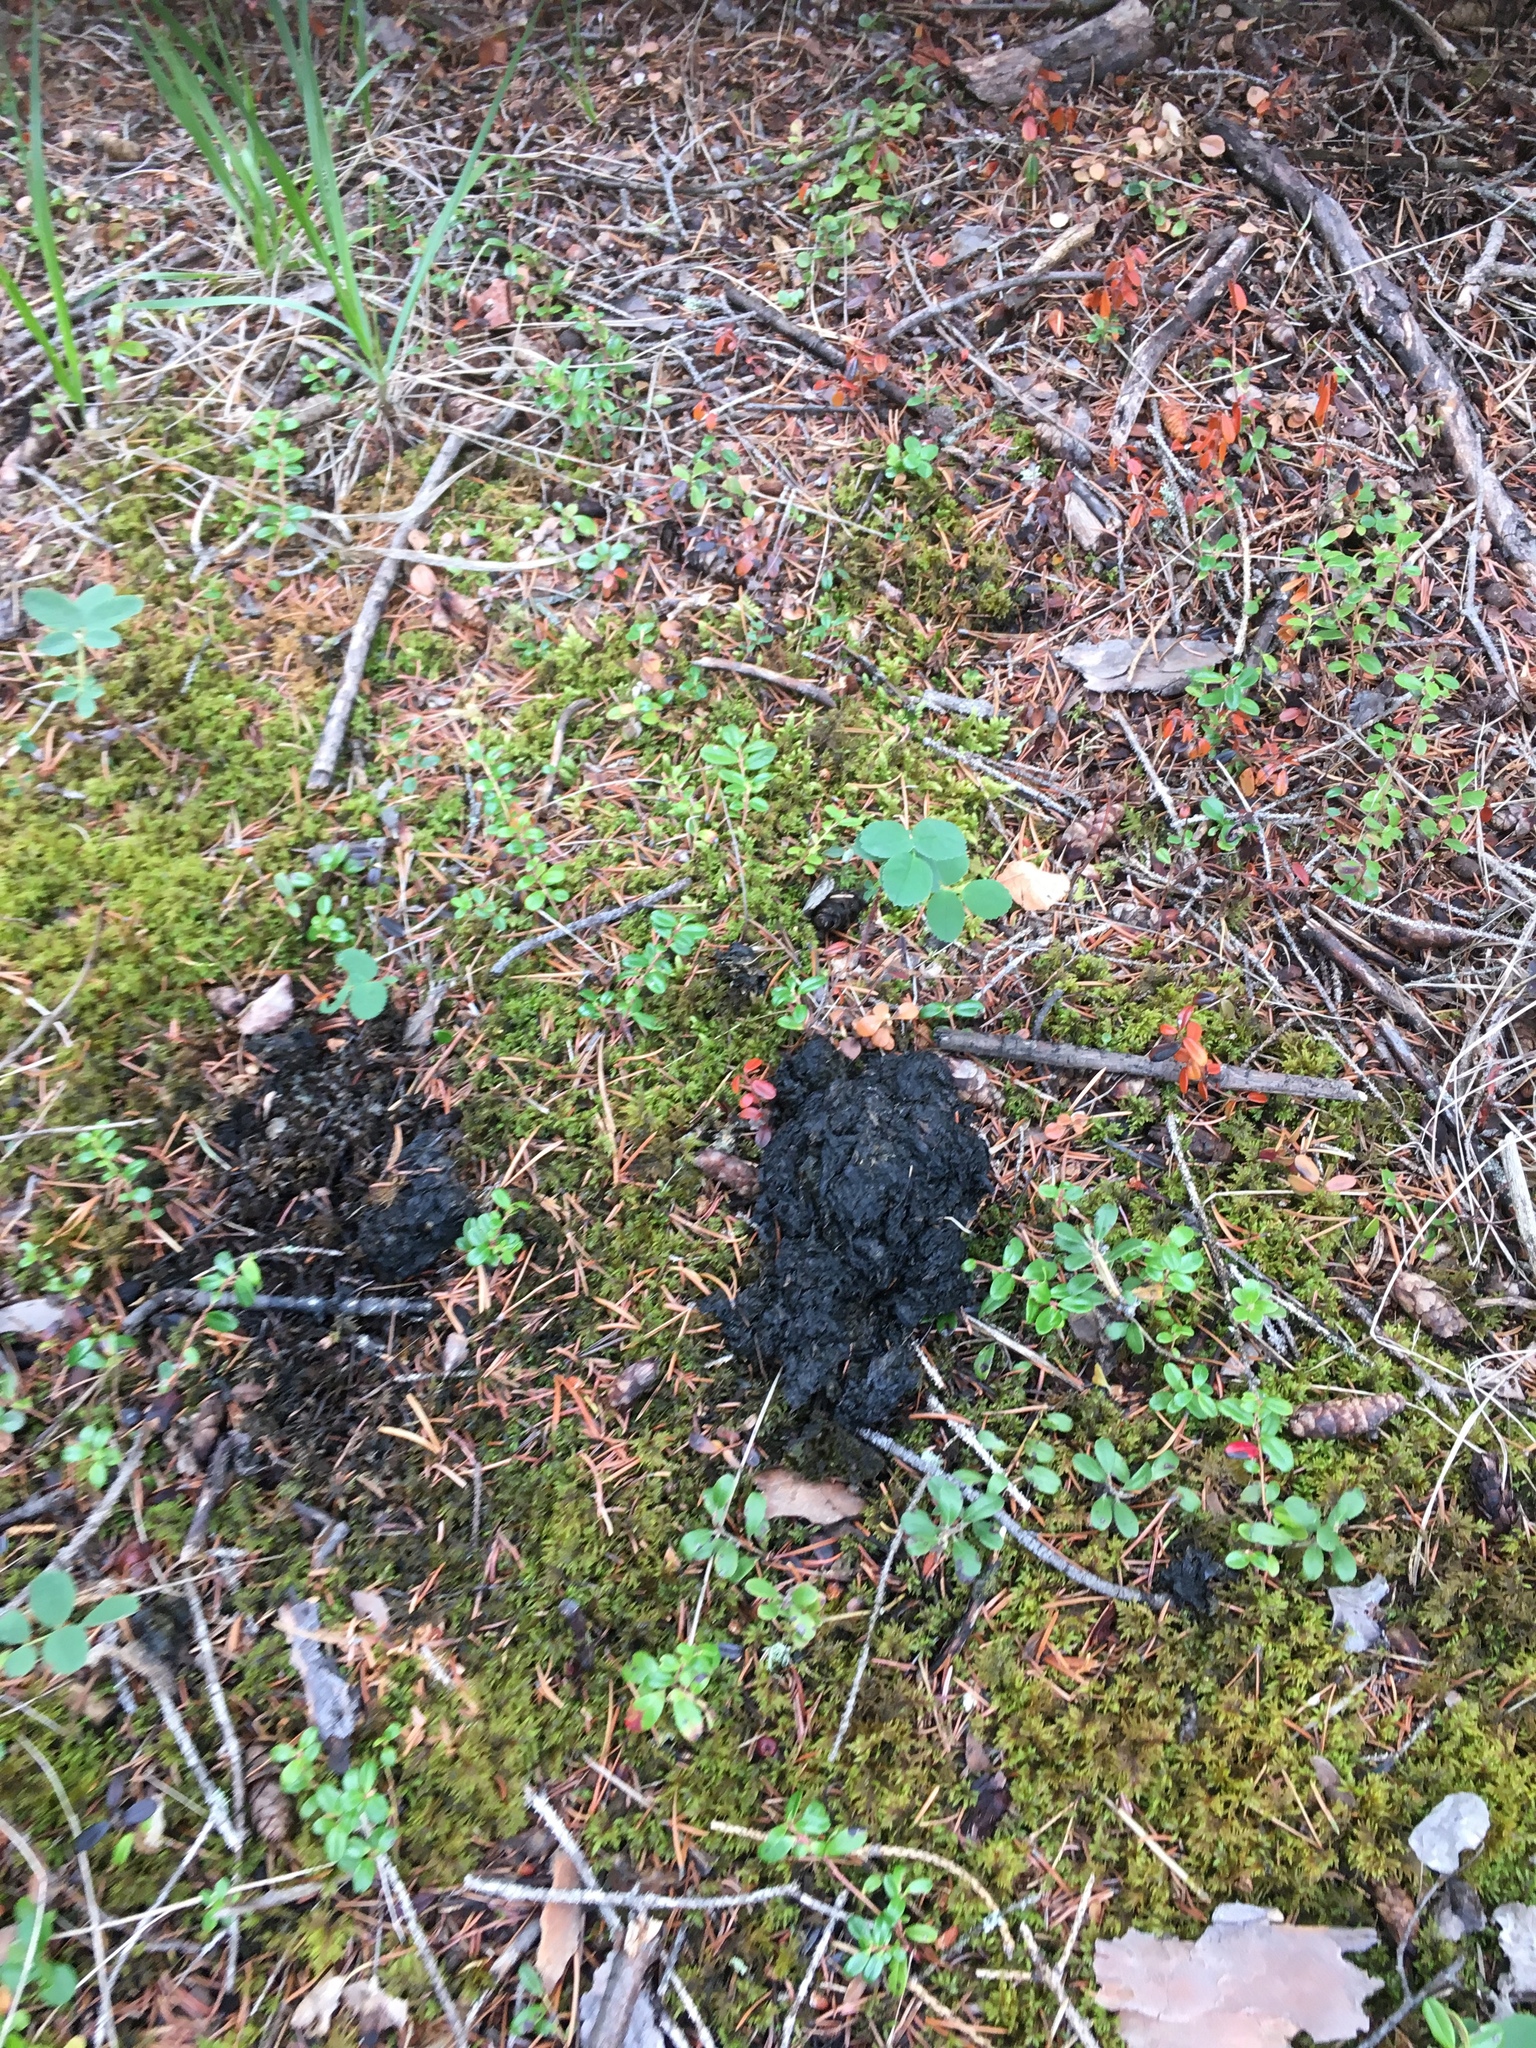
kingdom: Animalia
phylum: Chordata
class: Mammalia
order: Carnivora
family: Ursidae
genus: Ursus
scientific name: Ursus americanus
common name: American black bear
